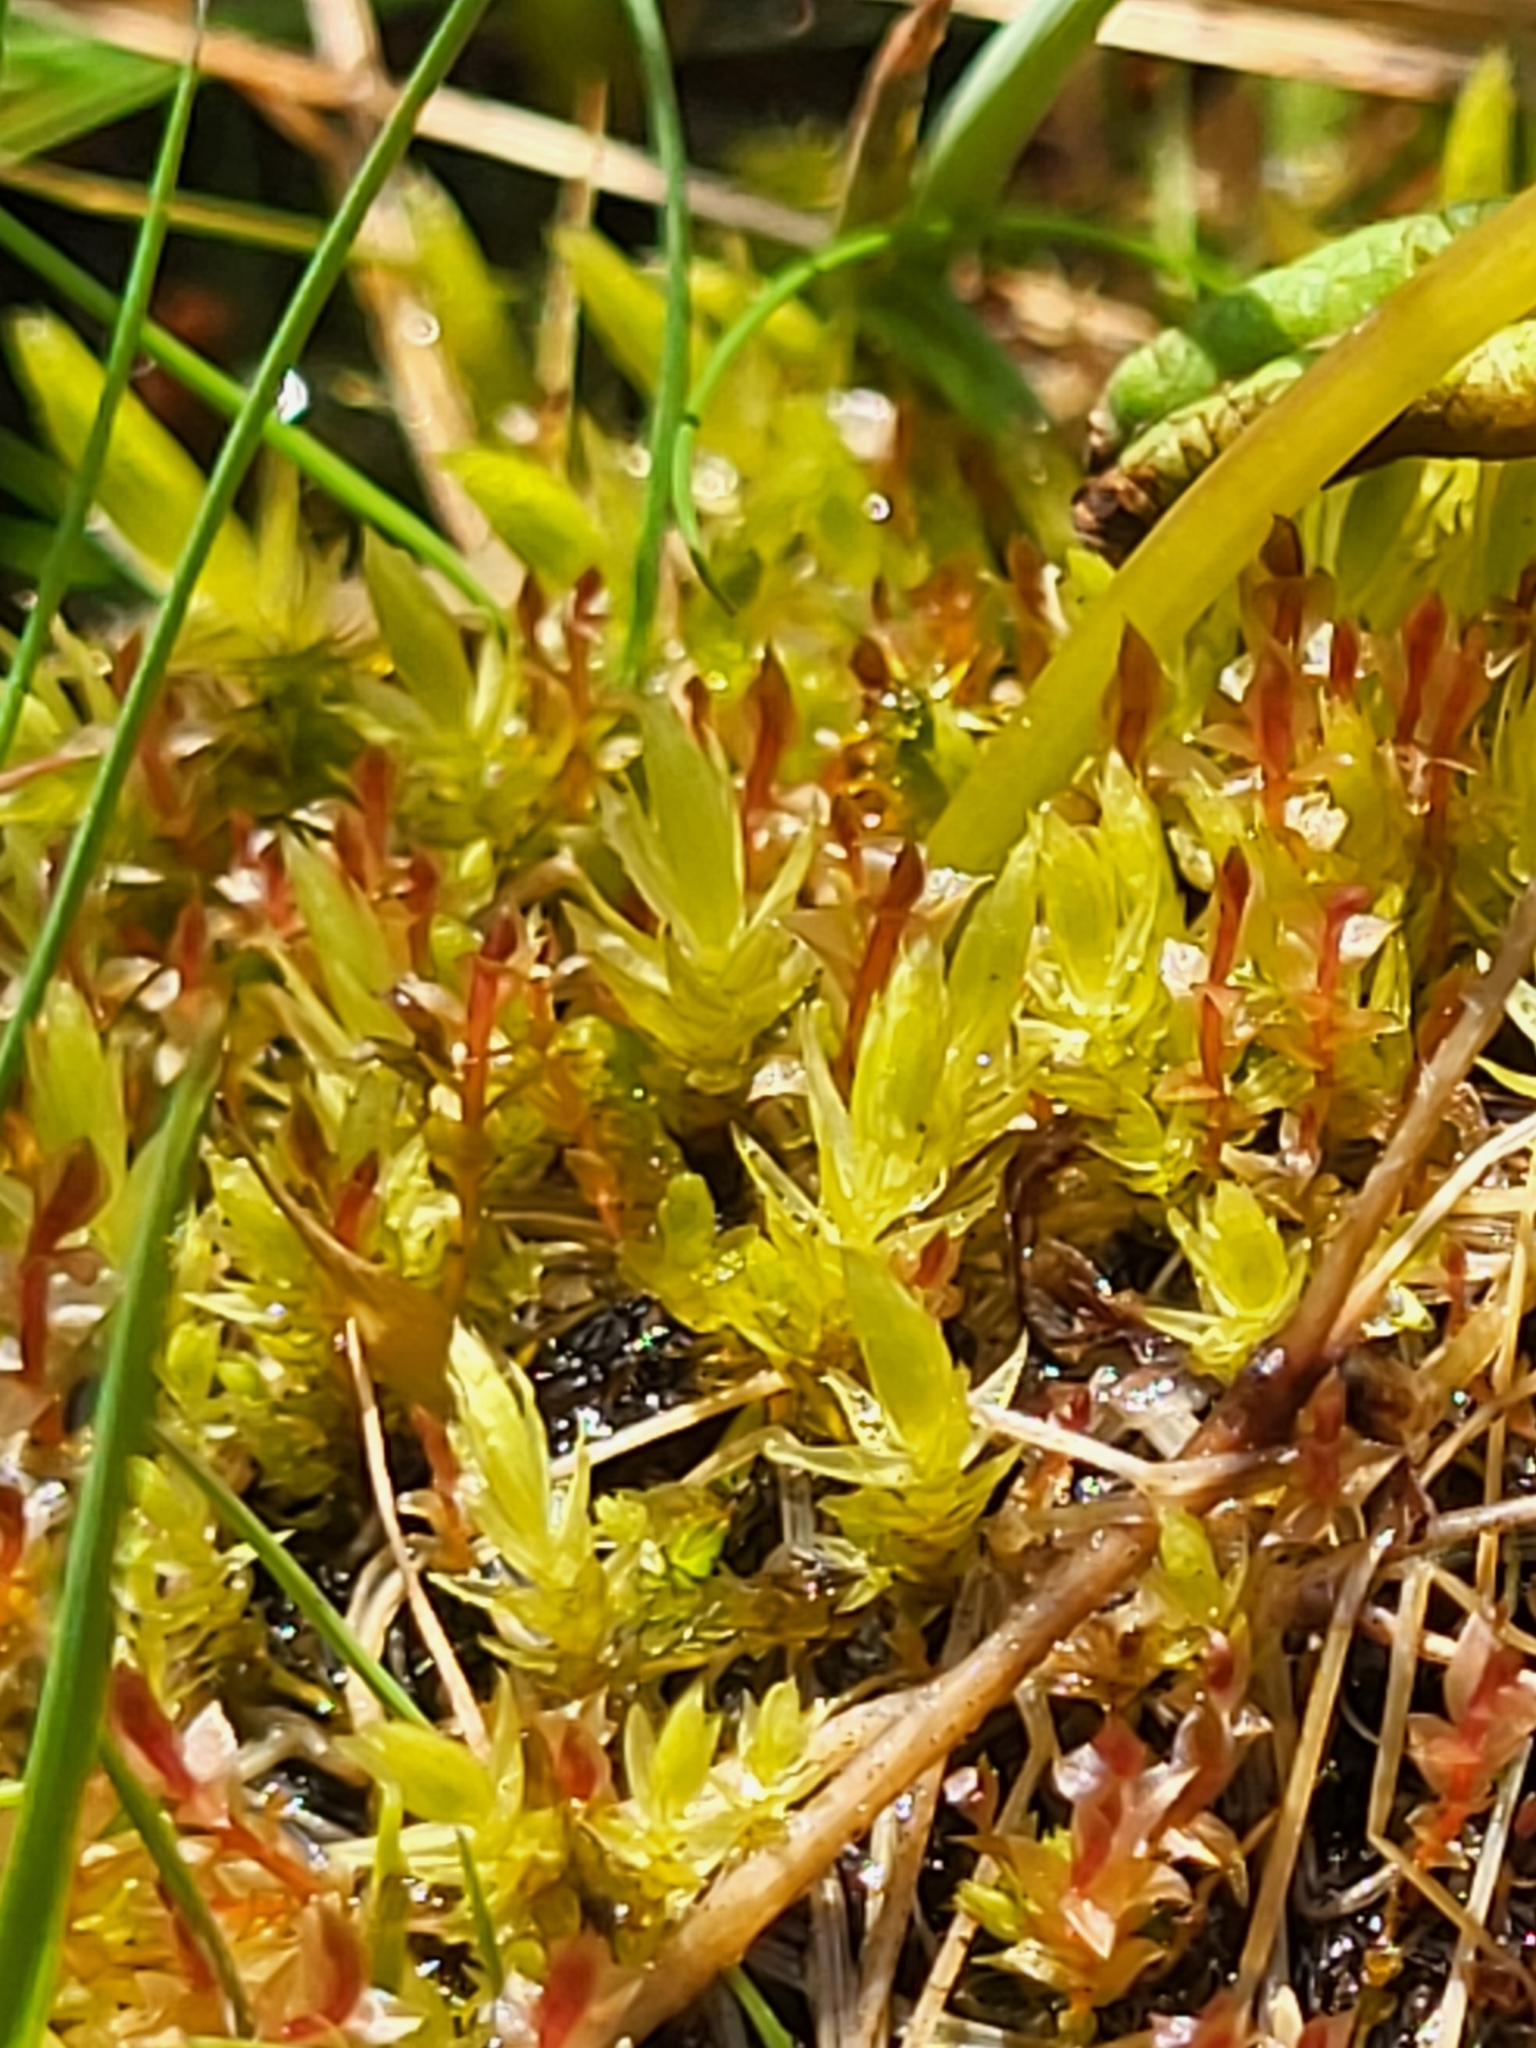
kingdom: Plantae
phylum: Bryophyta
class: Bryopsida
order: Bryales
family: Bryaceae
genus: Ptychostomum
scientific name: Ptychostomum weigelii
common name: Weigel's bryum moss
